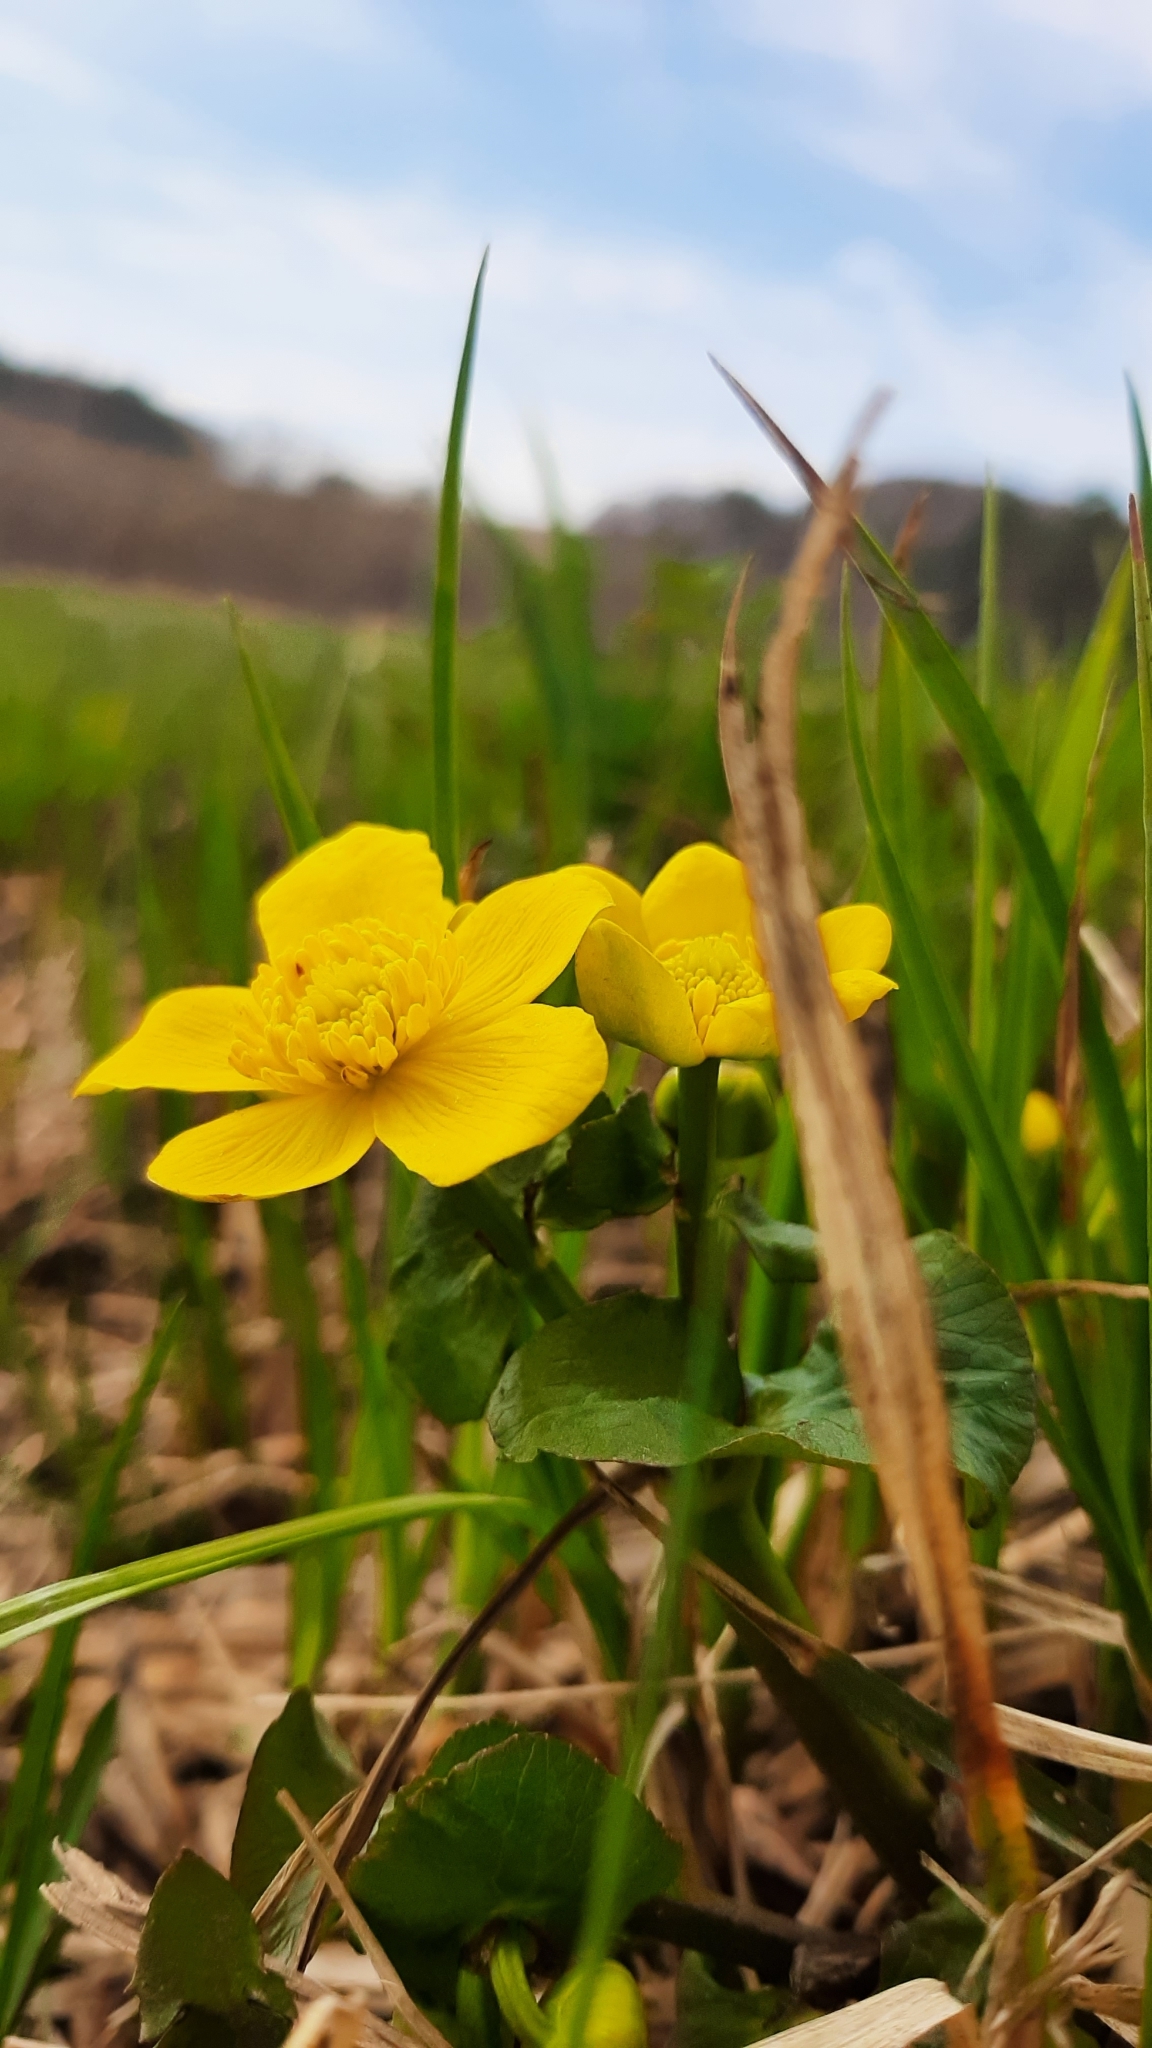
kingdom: Plantae
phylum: Tracheophyta
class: Magnoliopsida
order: Ranunculales
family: Ranunculaceae
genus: Caltha
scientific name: Caltha palustris
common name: Marsh marigold
